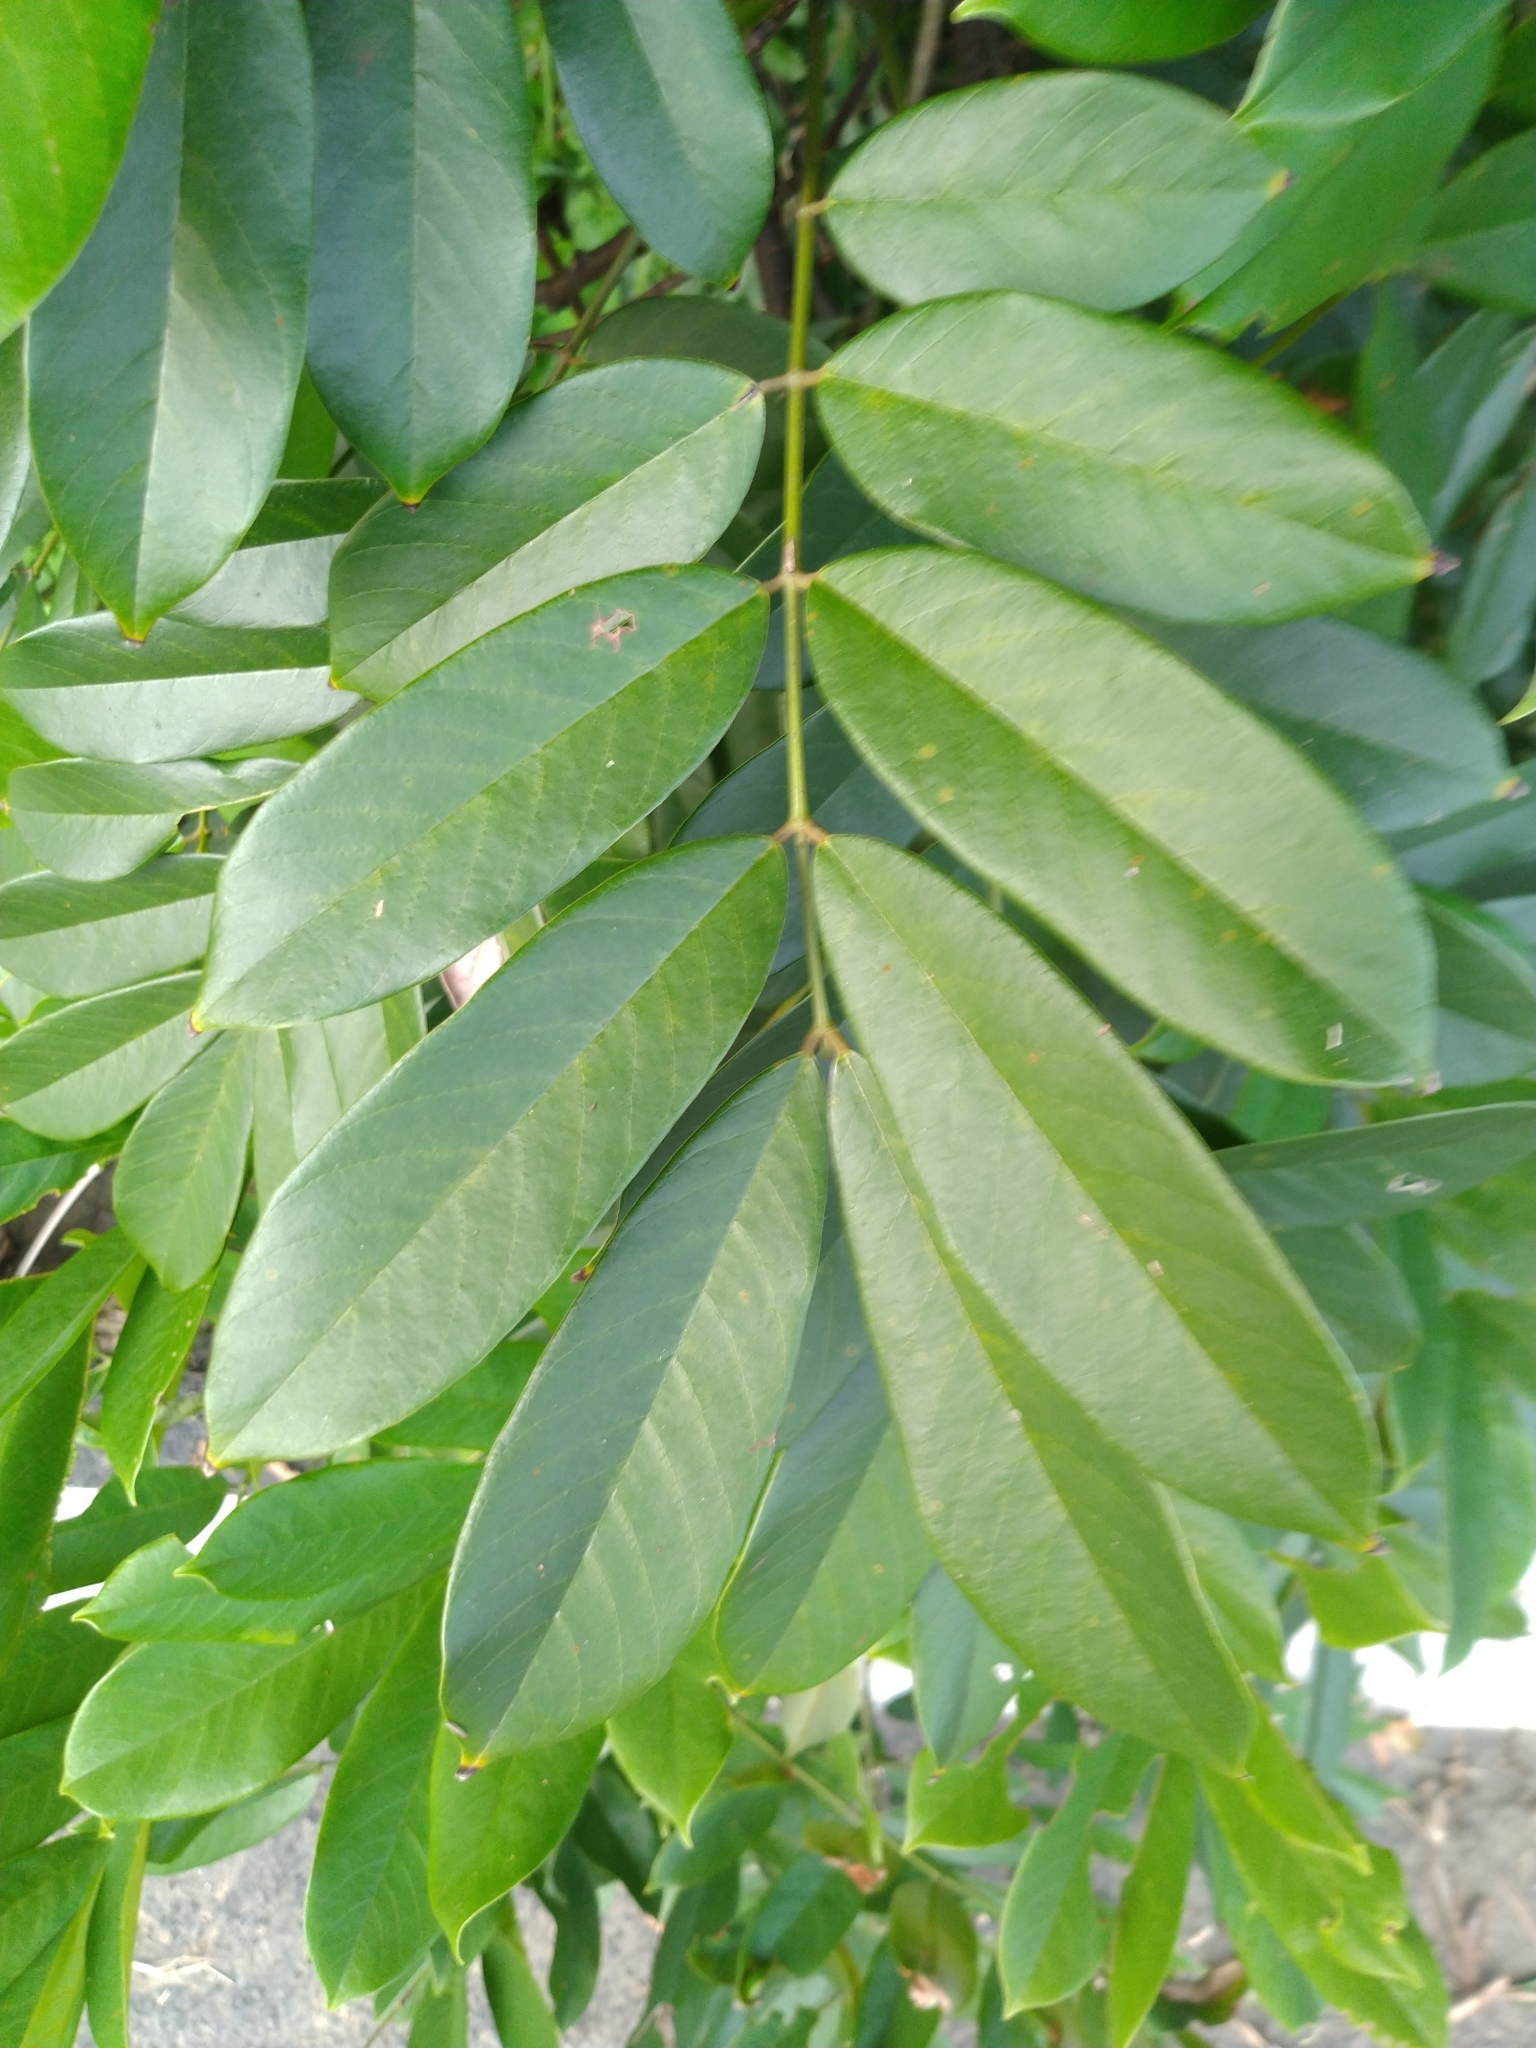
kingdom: Plantae
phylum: Tracheophyta
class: Magnoliopsida
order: Fabales
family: Fabaceae
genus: Millettia
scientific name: Millettia pachycarpa
